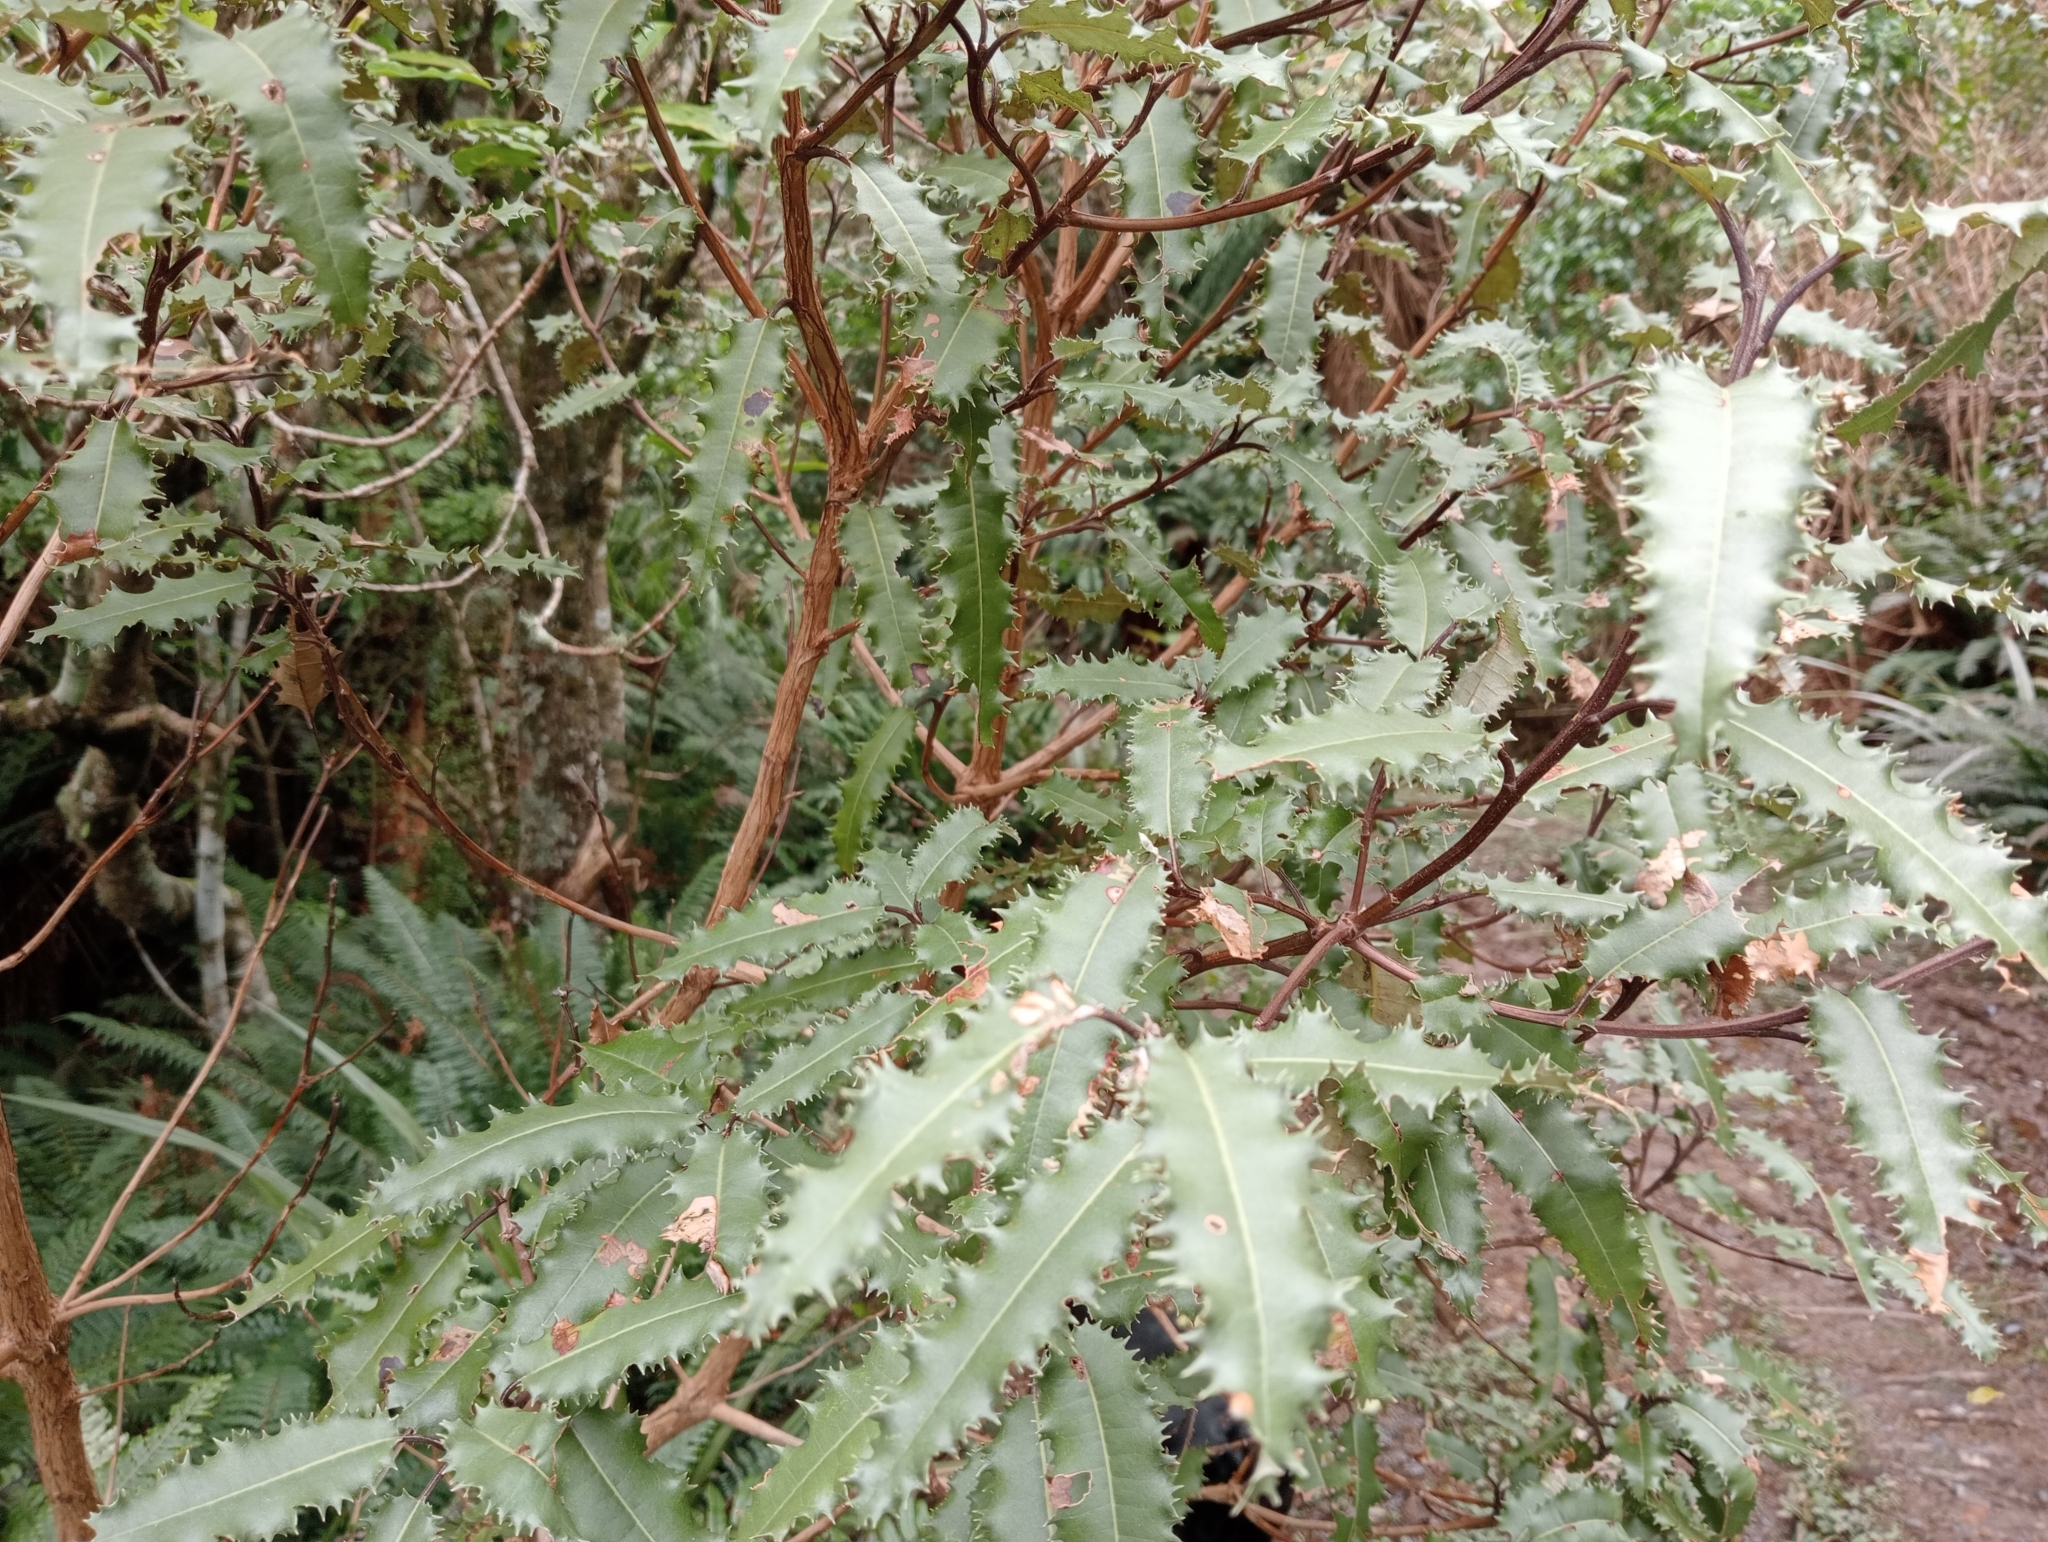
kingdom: Plantae
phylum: Tracheophyta
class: Magnoliopsida
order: Asterales
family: Asteraceae
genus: Olearia
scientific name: Olearia ilicifolia
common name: Maori-holly
